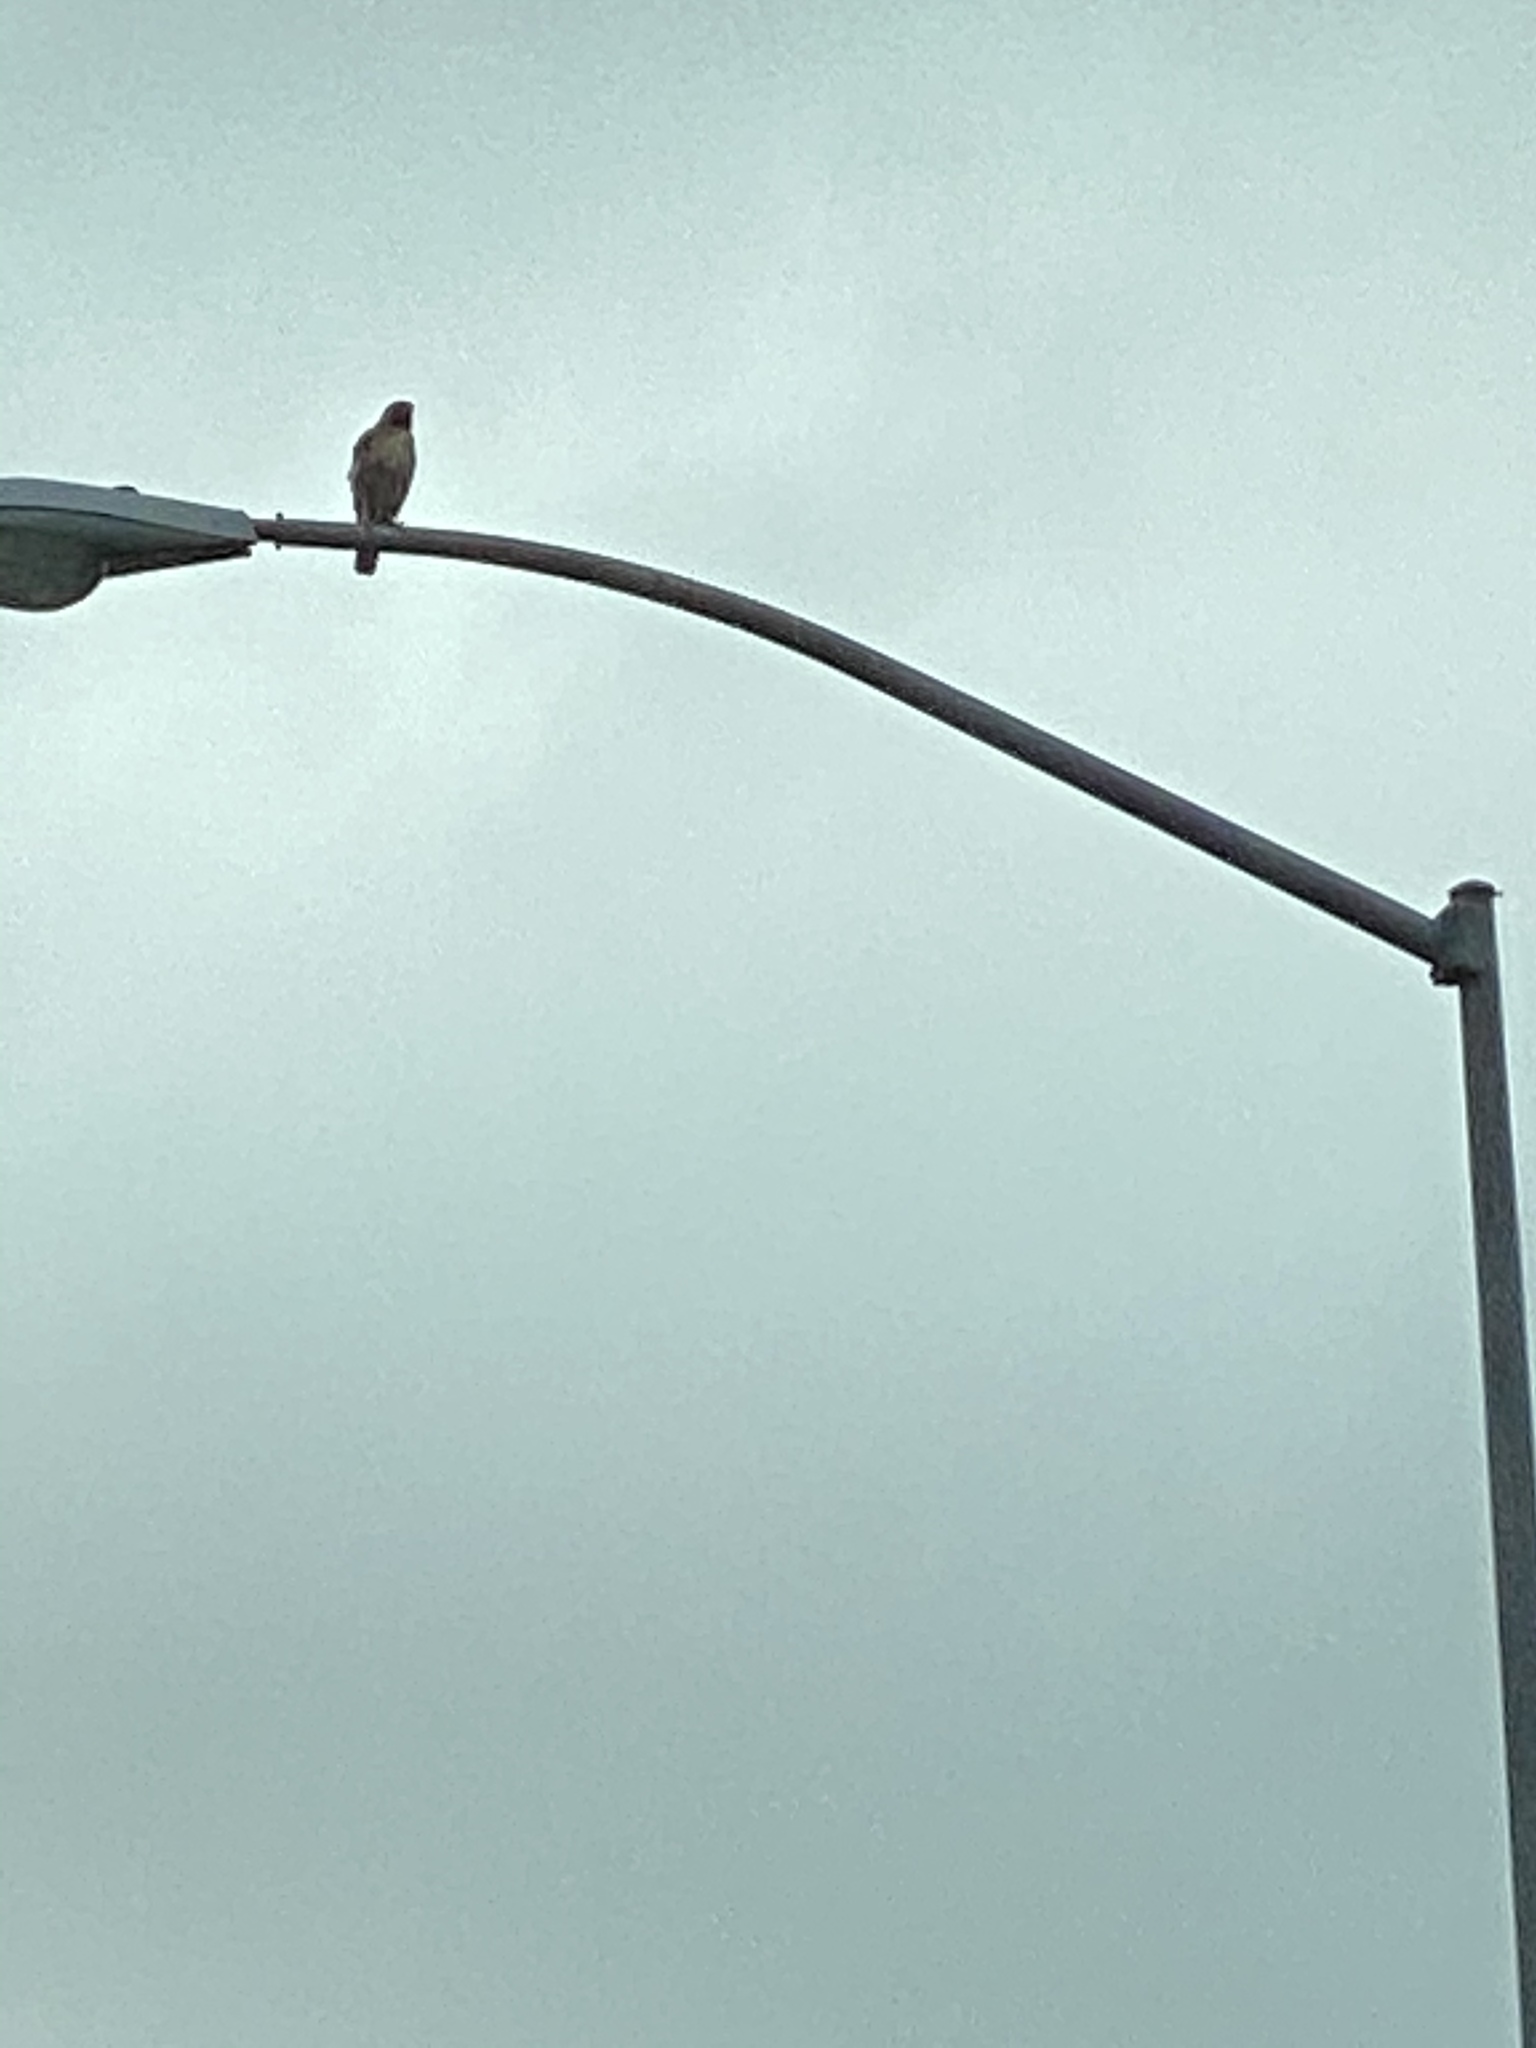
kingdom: Animalia
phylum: Chordata
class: Aves
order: Accipitriformes
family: Accipitridae
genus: Buteo
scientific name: Buteo jamaicensis
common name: Red-tailed hawk
